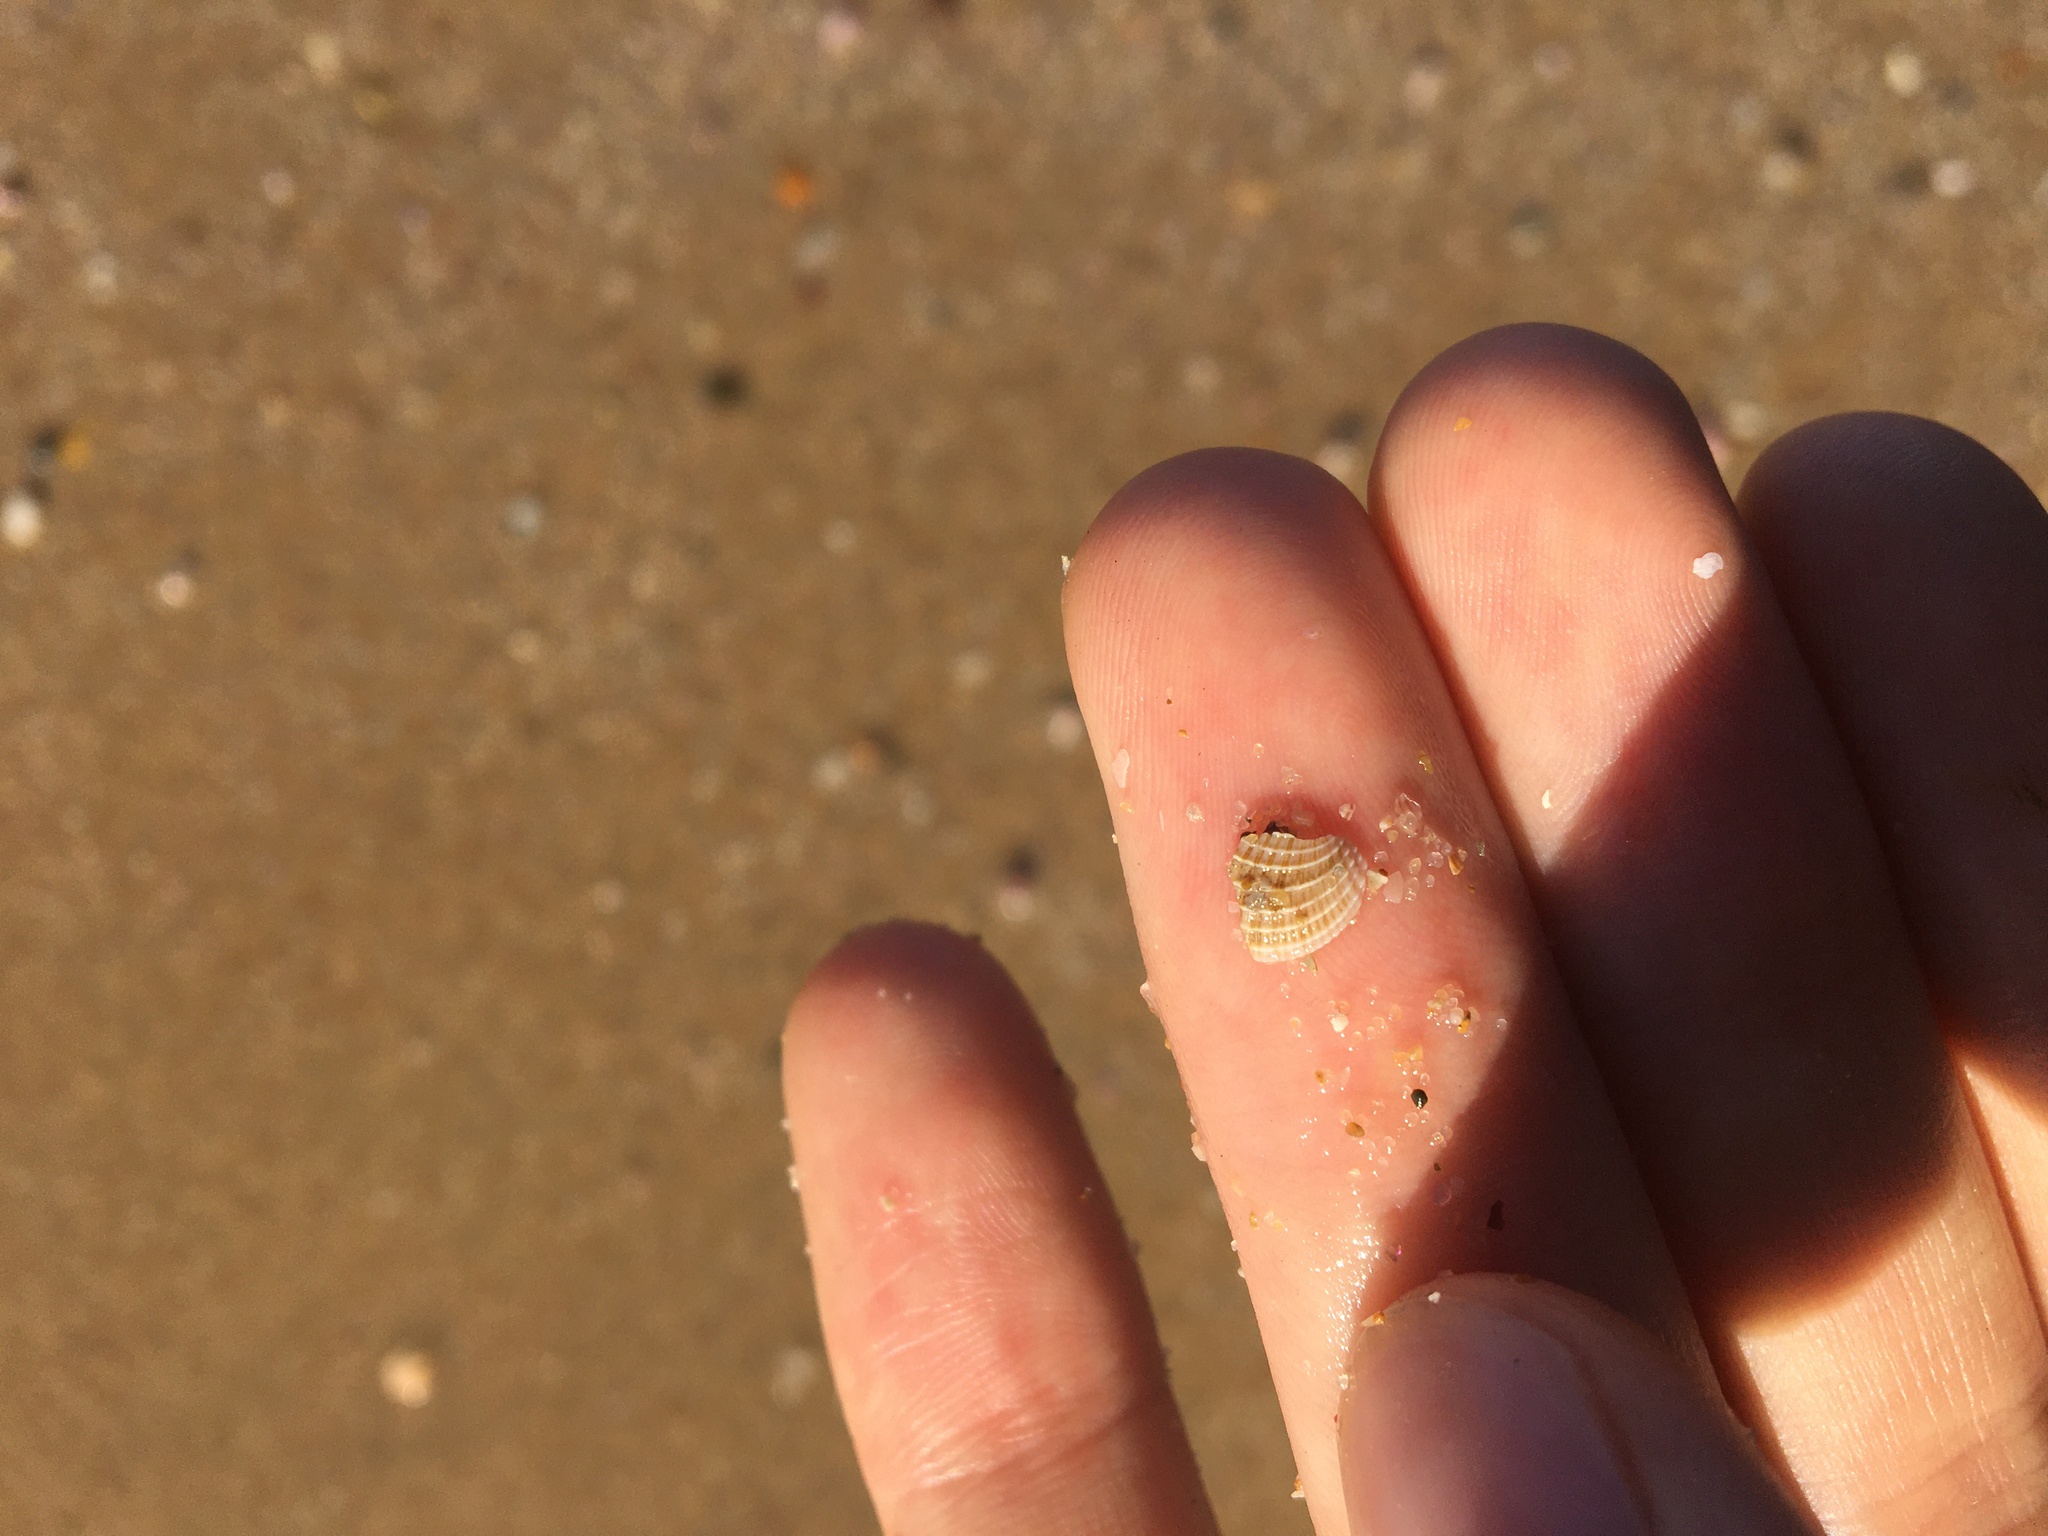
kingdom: Animalia
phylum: Mollusca
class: Bivalvia
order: Venerida
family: Veneridae
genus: Timoclea
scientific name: Timoclea scabra
